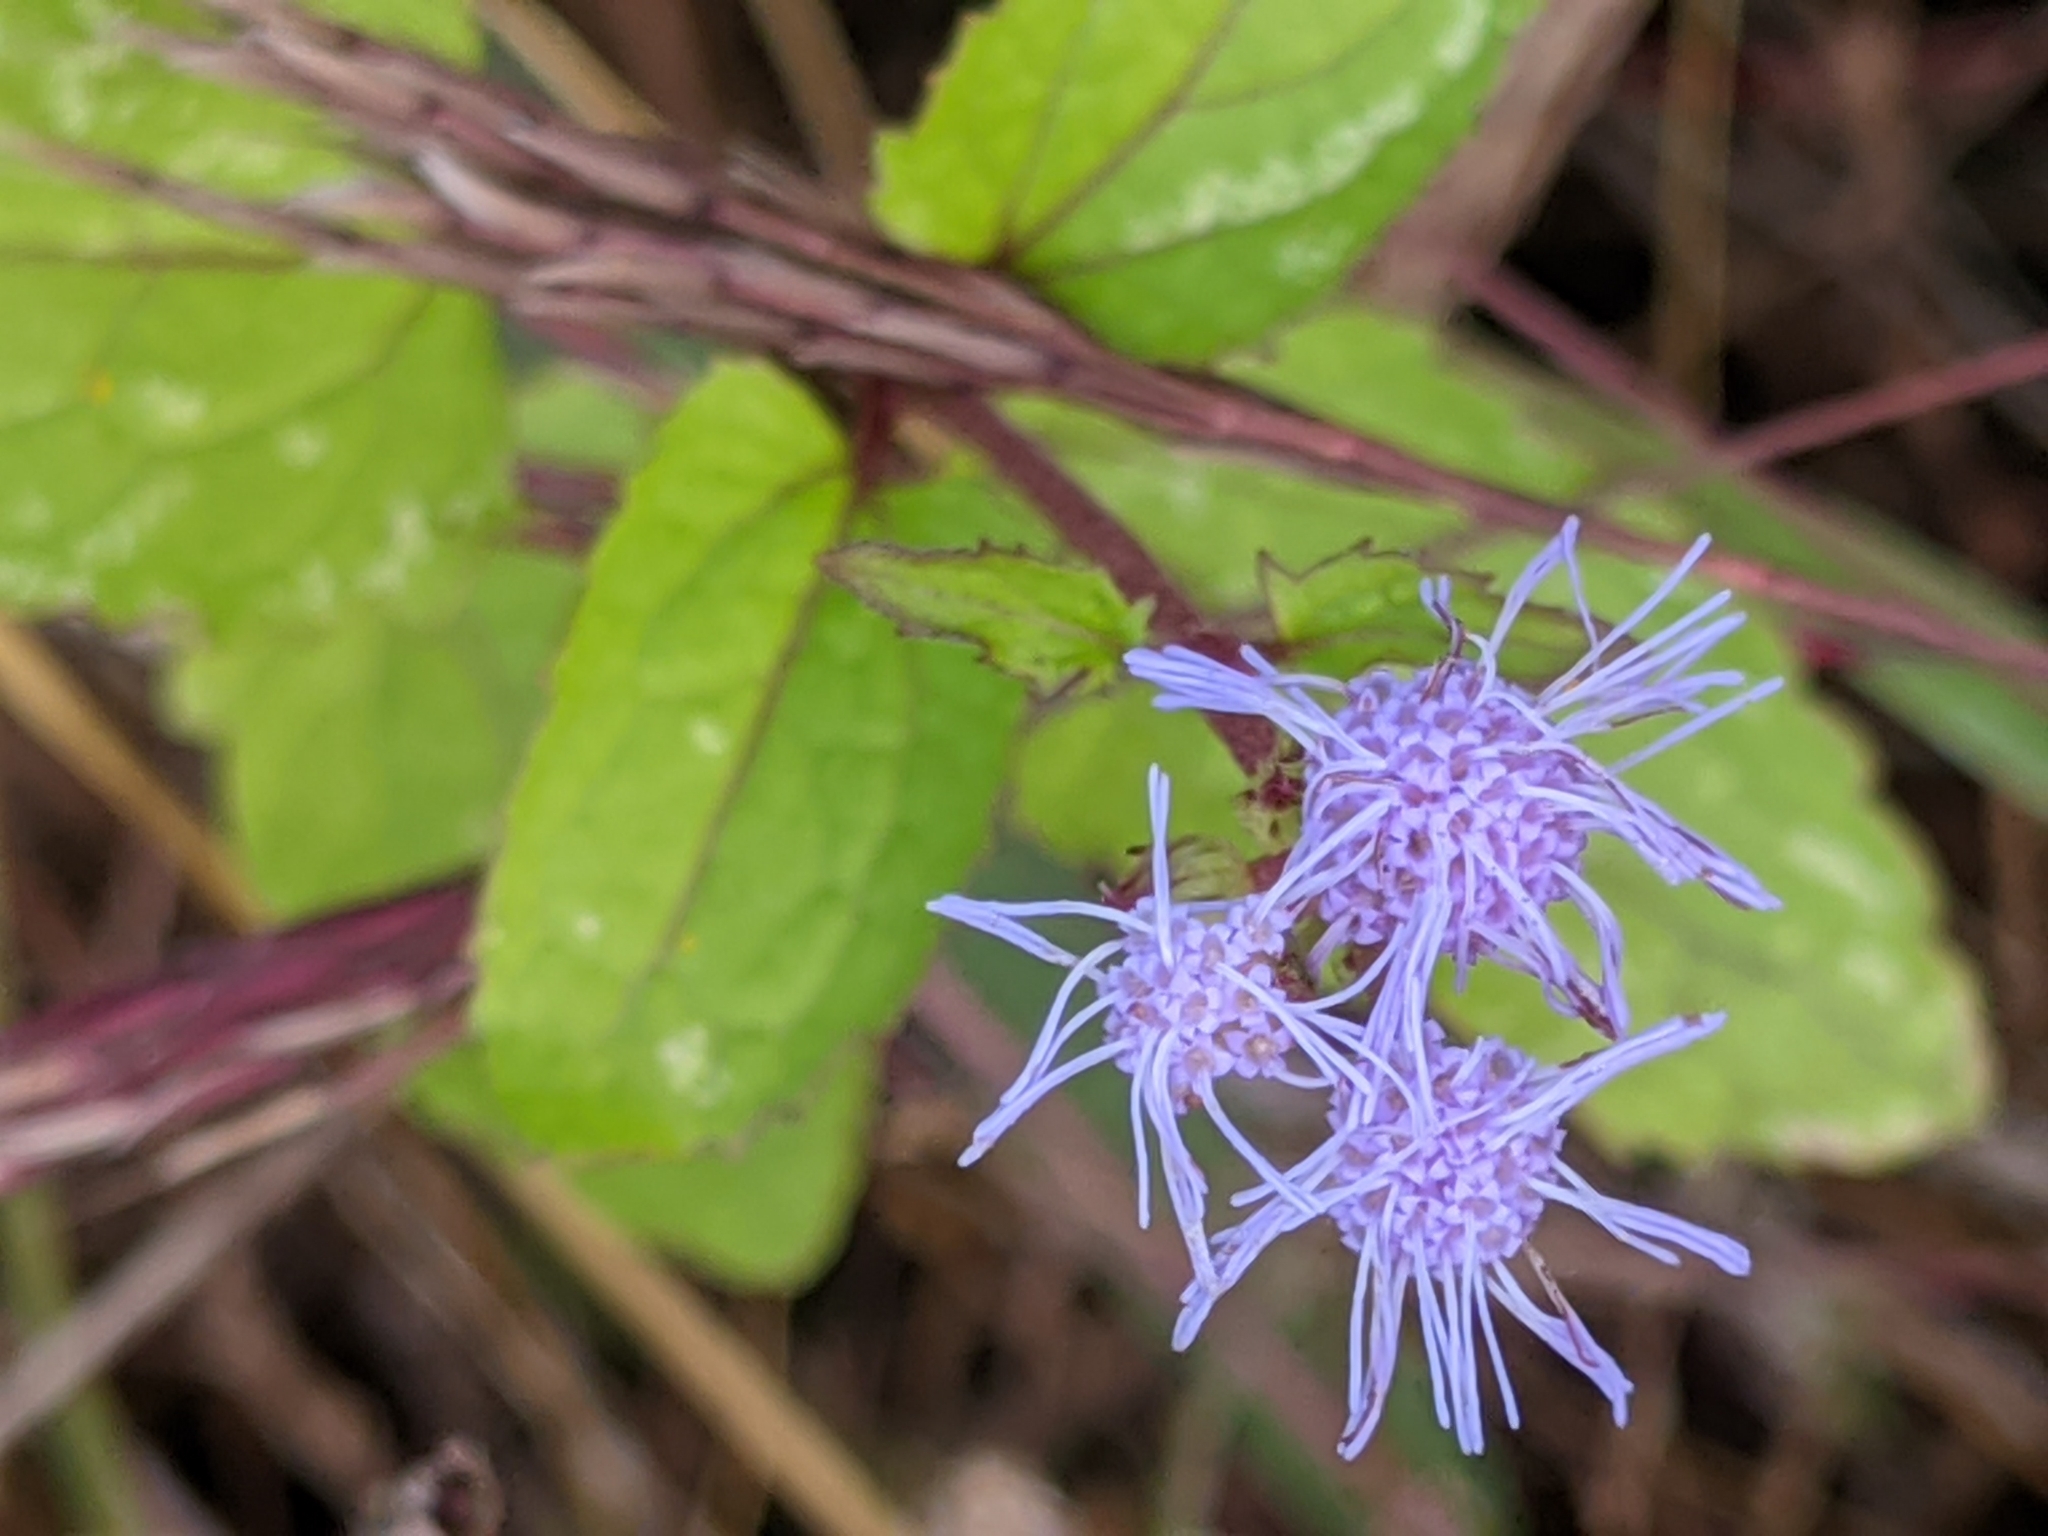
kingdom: Plantae
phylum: Tracheophyta
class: Magnoliopsida
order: Asterales
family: Asteraceae
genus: Conoclinium
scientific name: Conoclinium coelestinum
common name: Blue mistflower
